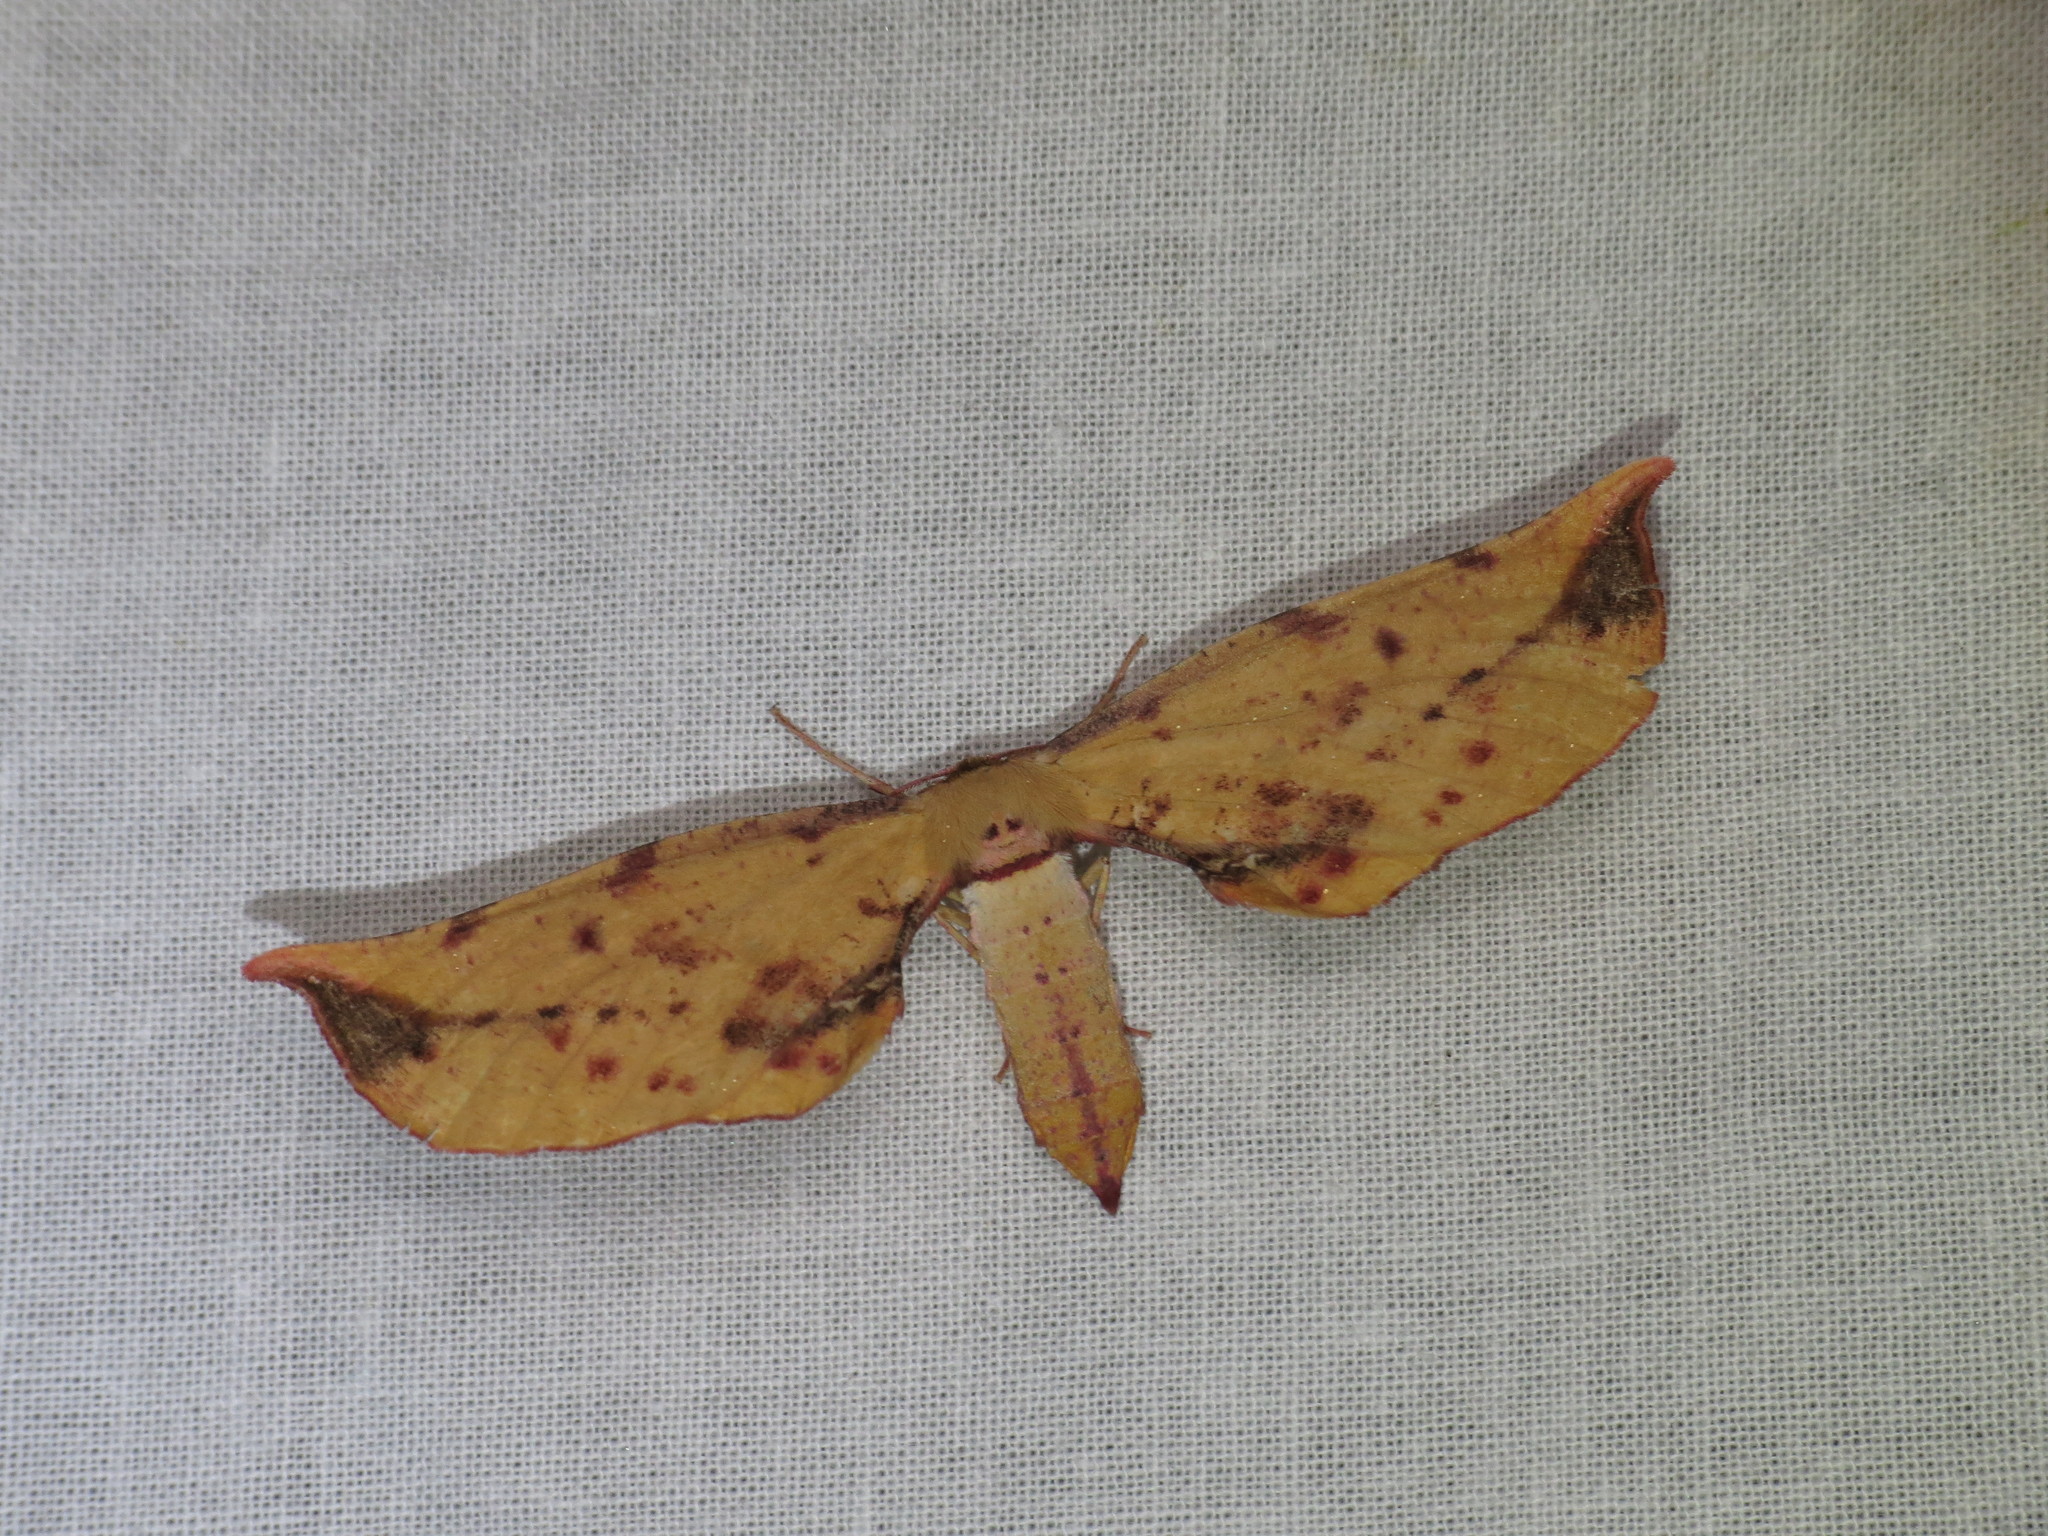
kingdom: Animalia
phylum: Arthropoda
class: Insecta
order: Lepidoptera
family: Geometridae
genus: Parepisparis
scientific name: Parepisparis lutosaria
